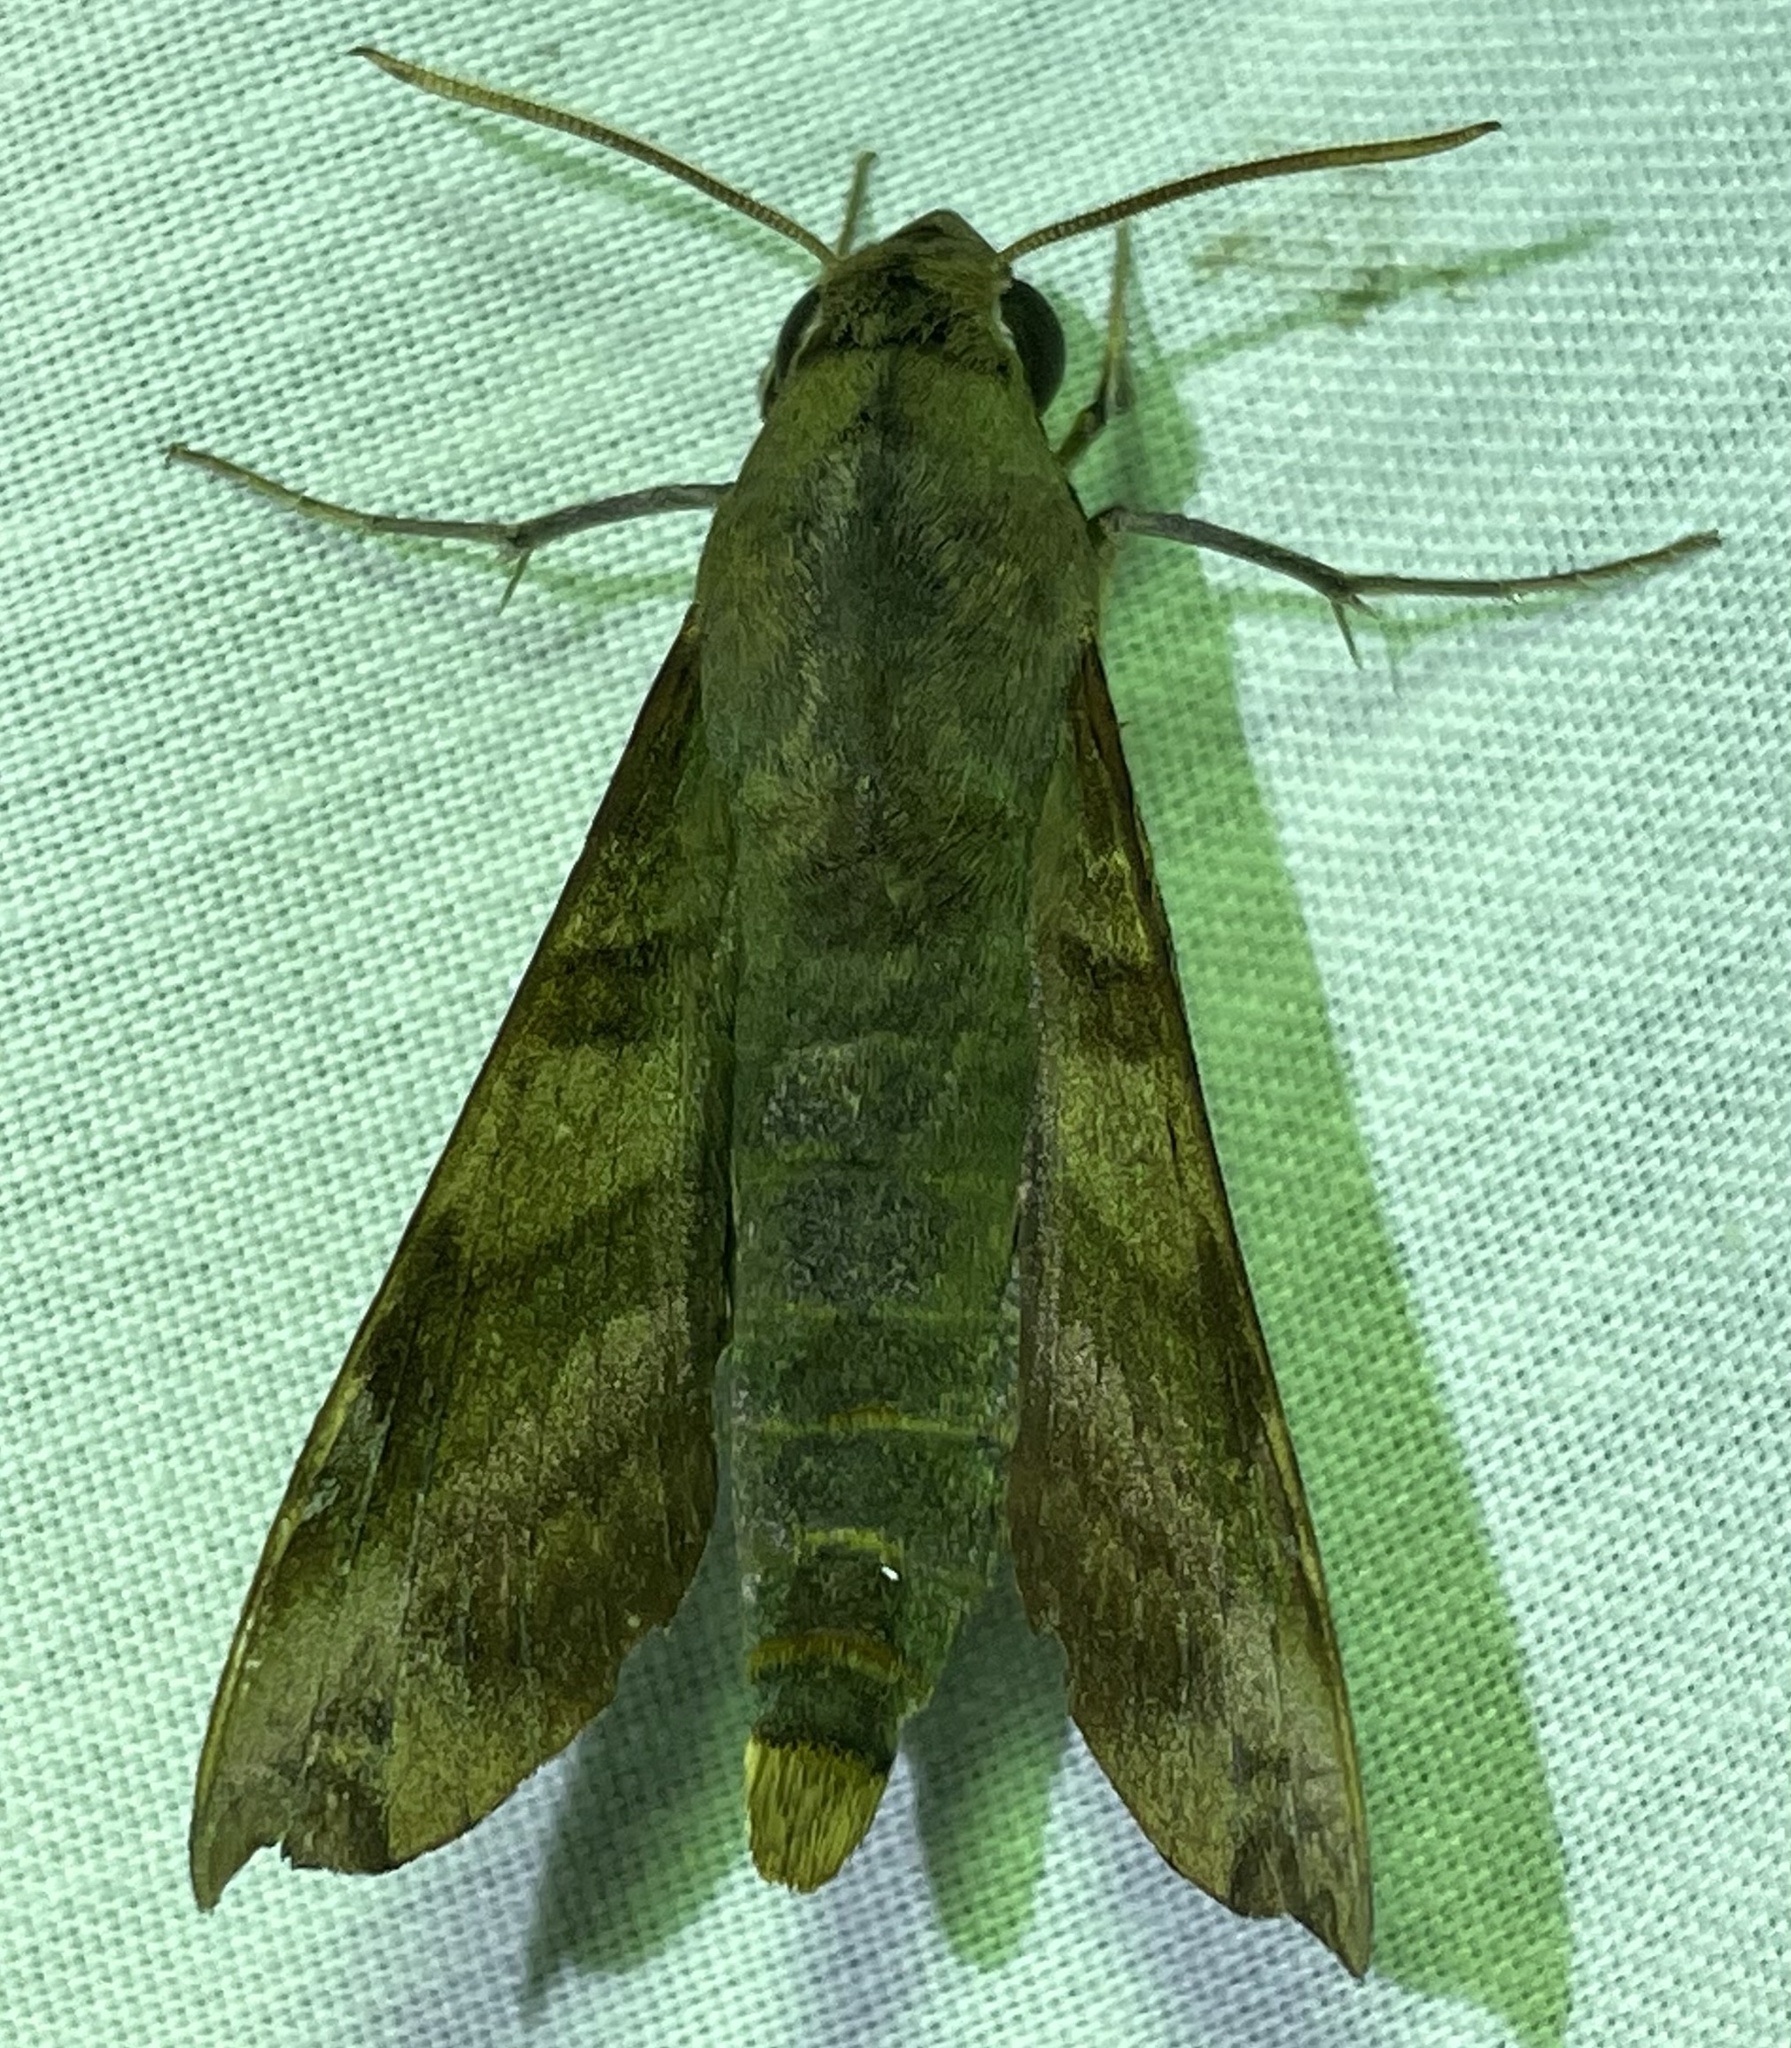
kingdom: Animalia
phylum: Arthropoda
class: Insecta
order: Lepidoptera
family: Sphingidae
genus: Temnora
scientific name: Temnora fumosa
